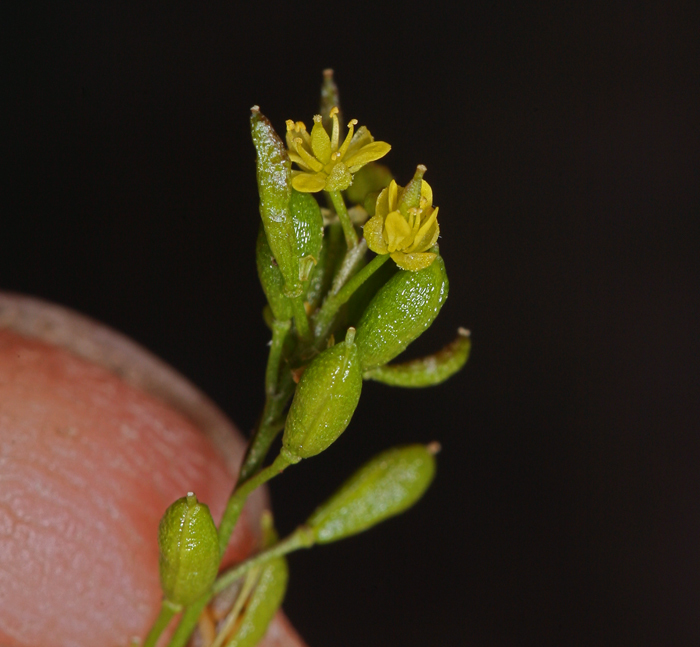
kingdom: Plantae
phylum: Tracheophyta
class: Magnoliopsida
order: Brassicales
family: Brassicaceae
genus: Descurainia
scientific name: Descurainia californica
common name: California tansy mustard
